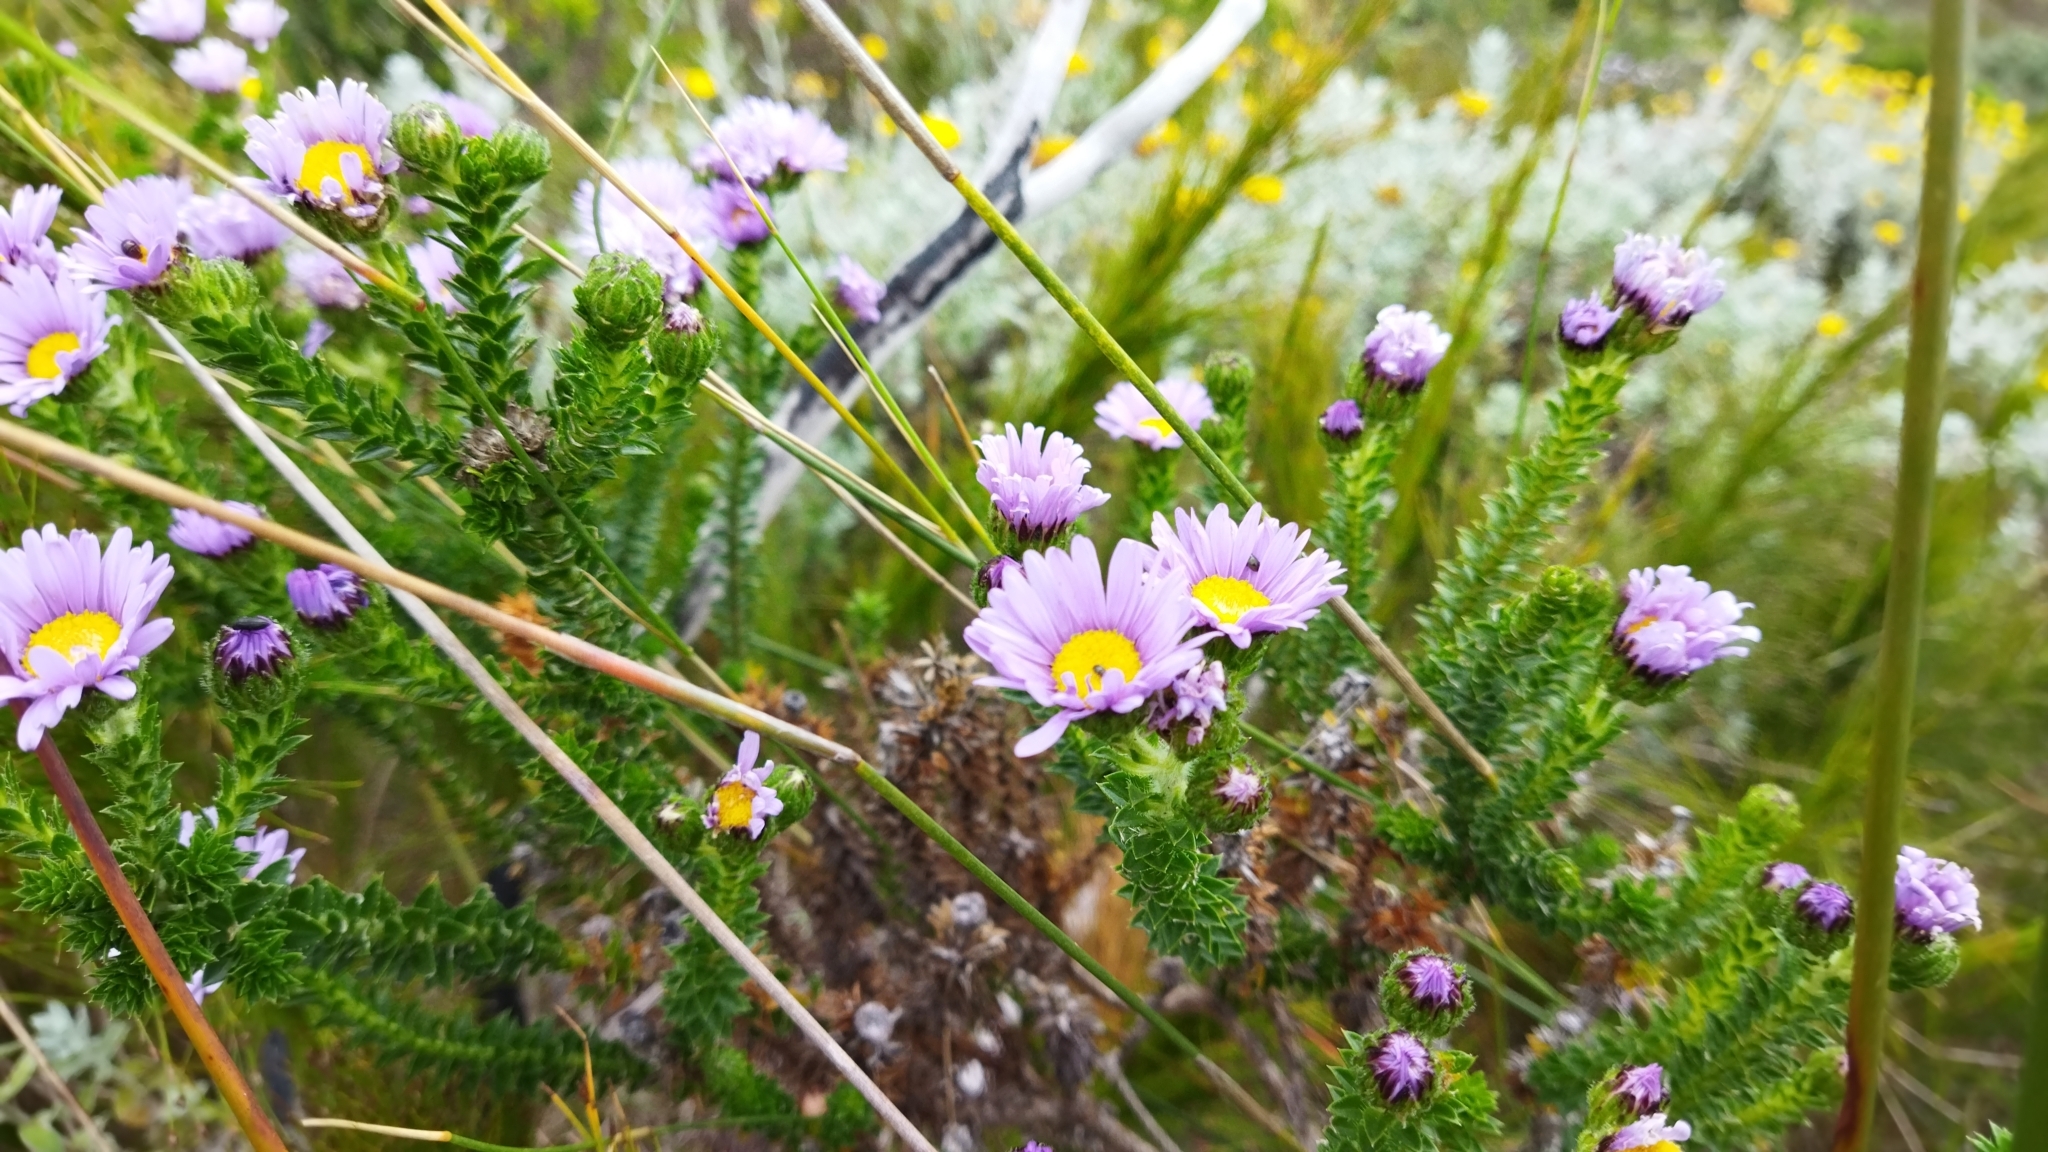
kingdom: Plantae
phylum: Tracheophyta
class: Magnoliopsida
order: Asterales
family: Asteraceae
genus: Felicia
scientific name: Felicia echinata
